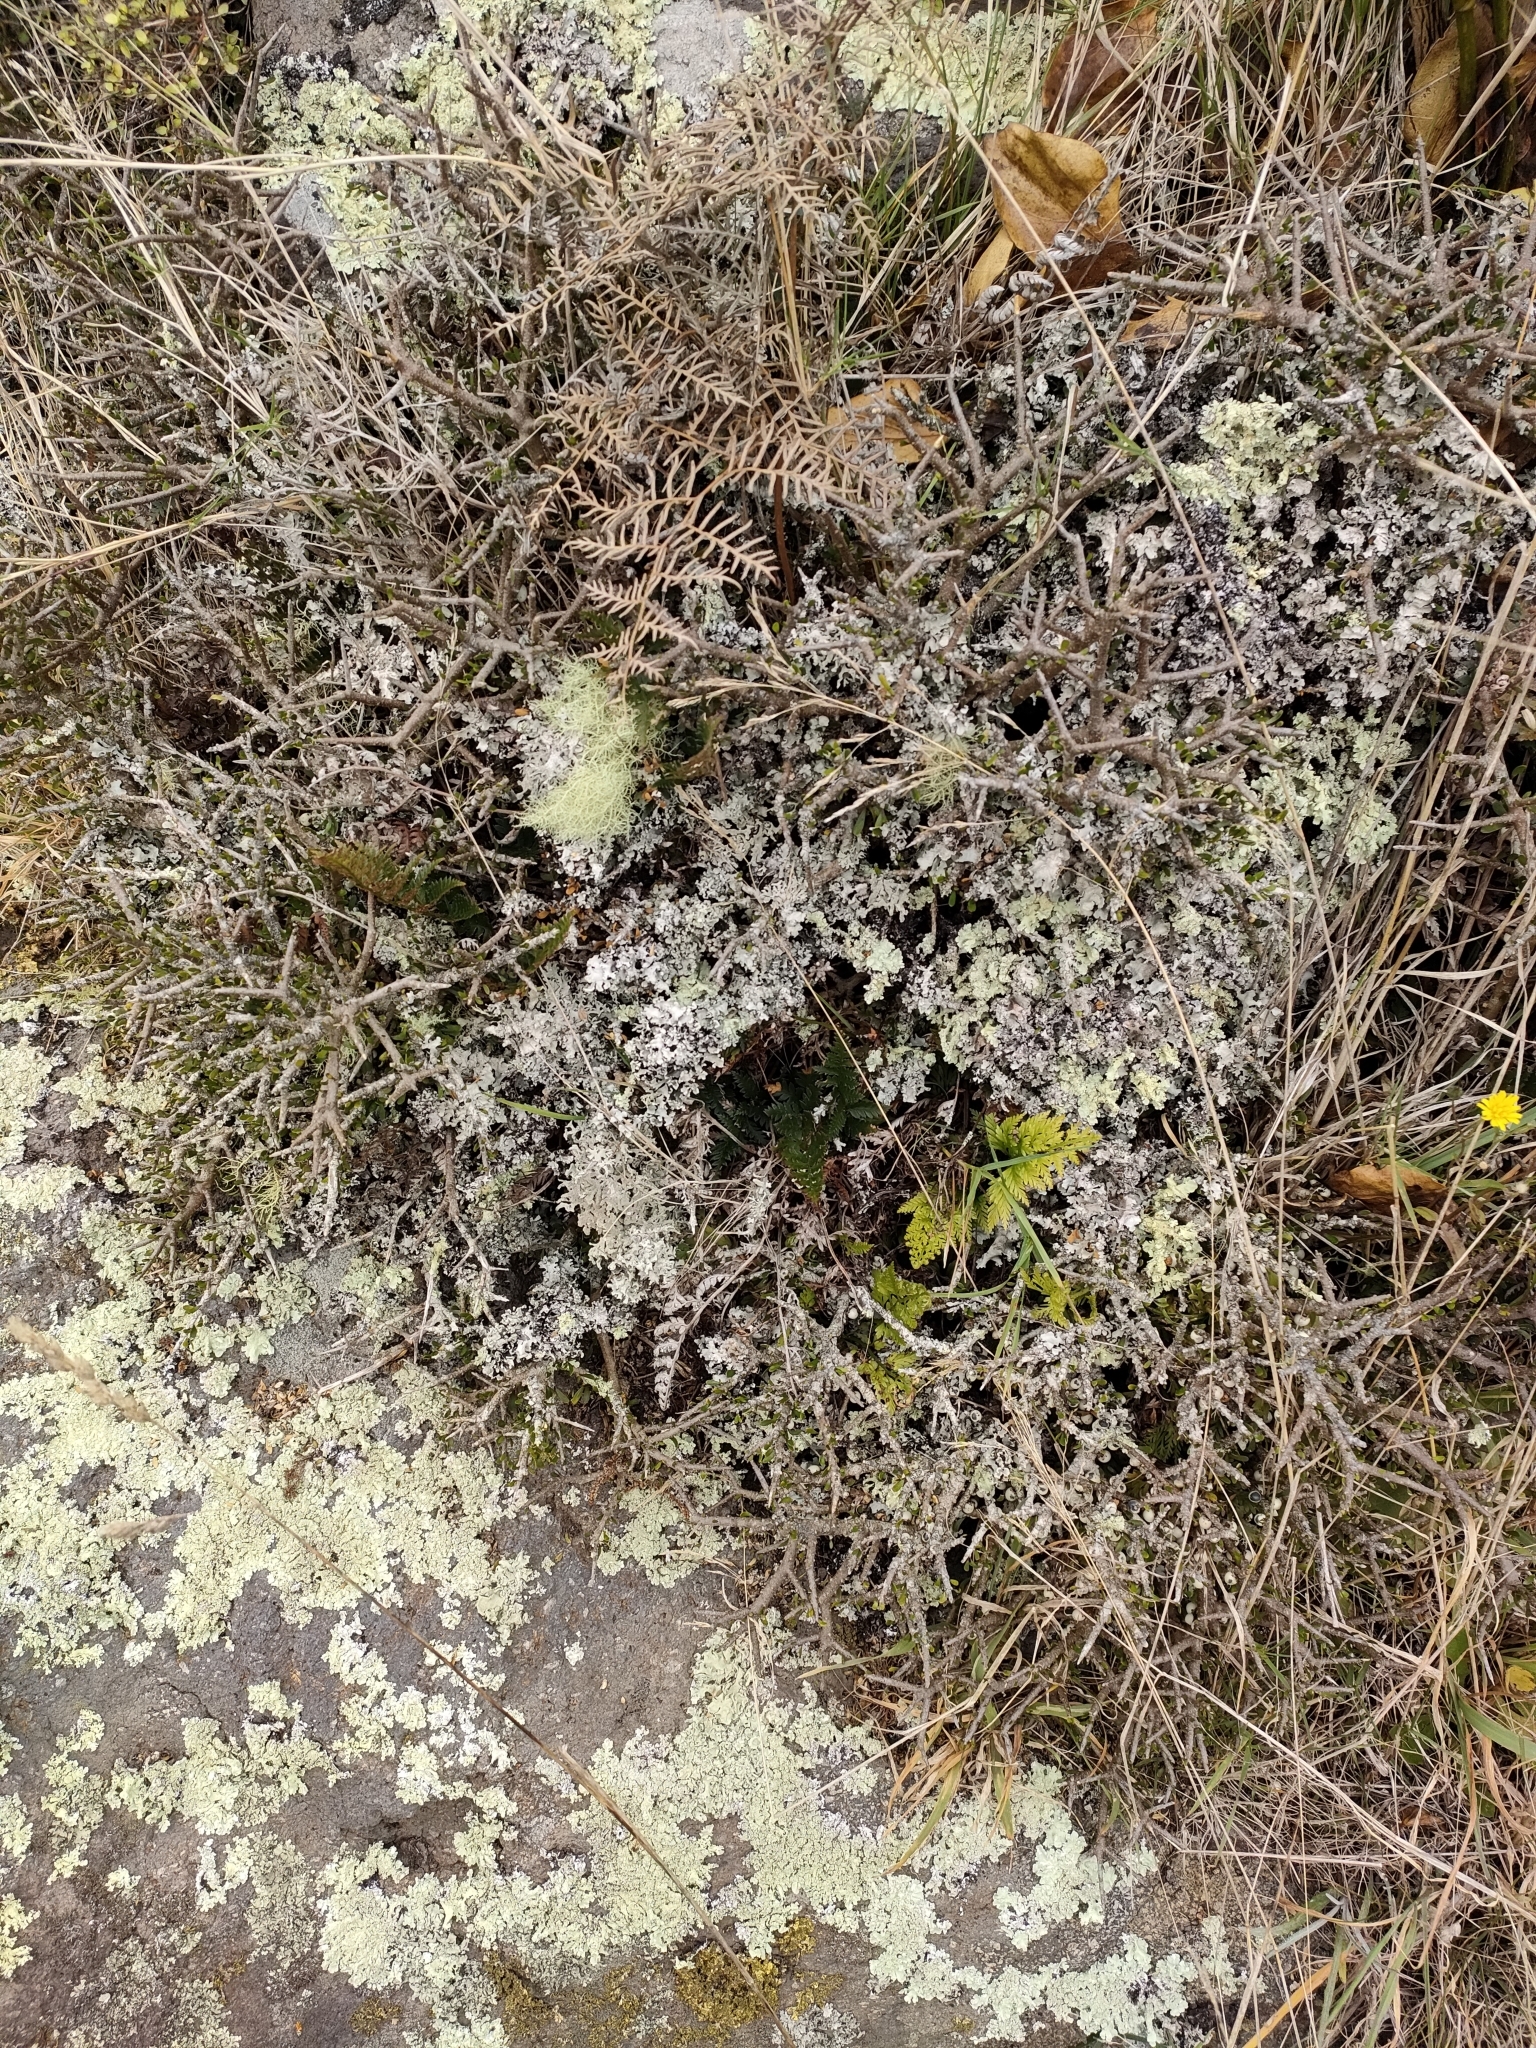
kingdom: Plantae
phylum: Tracheophyta
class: Magnoliopsida
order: Malpighiales
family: Violaceae
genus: Melicytus
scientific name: Melicytus alpinus
